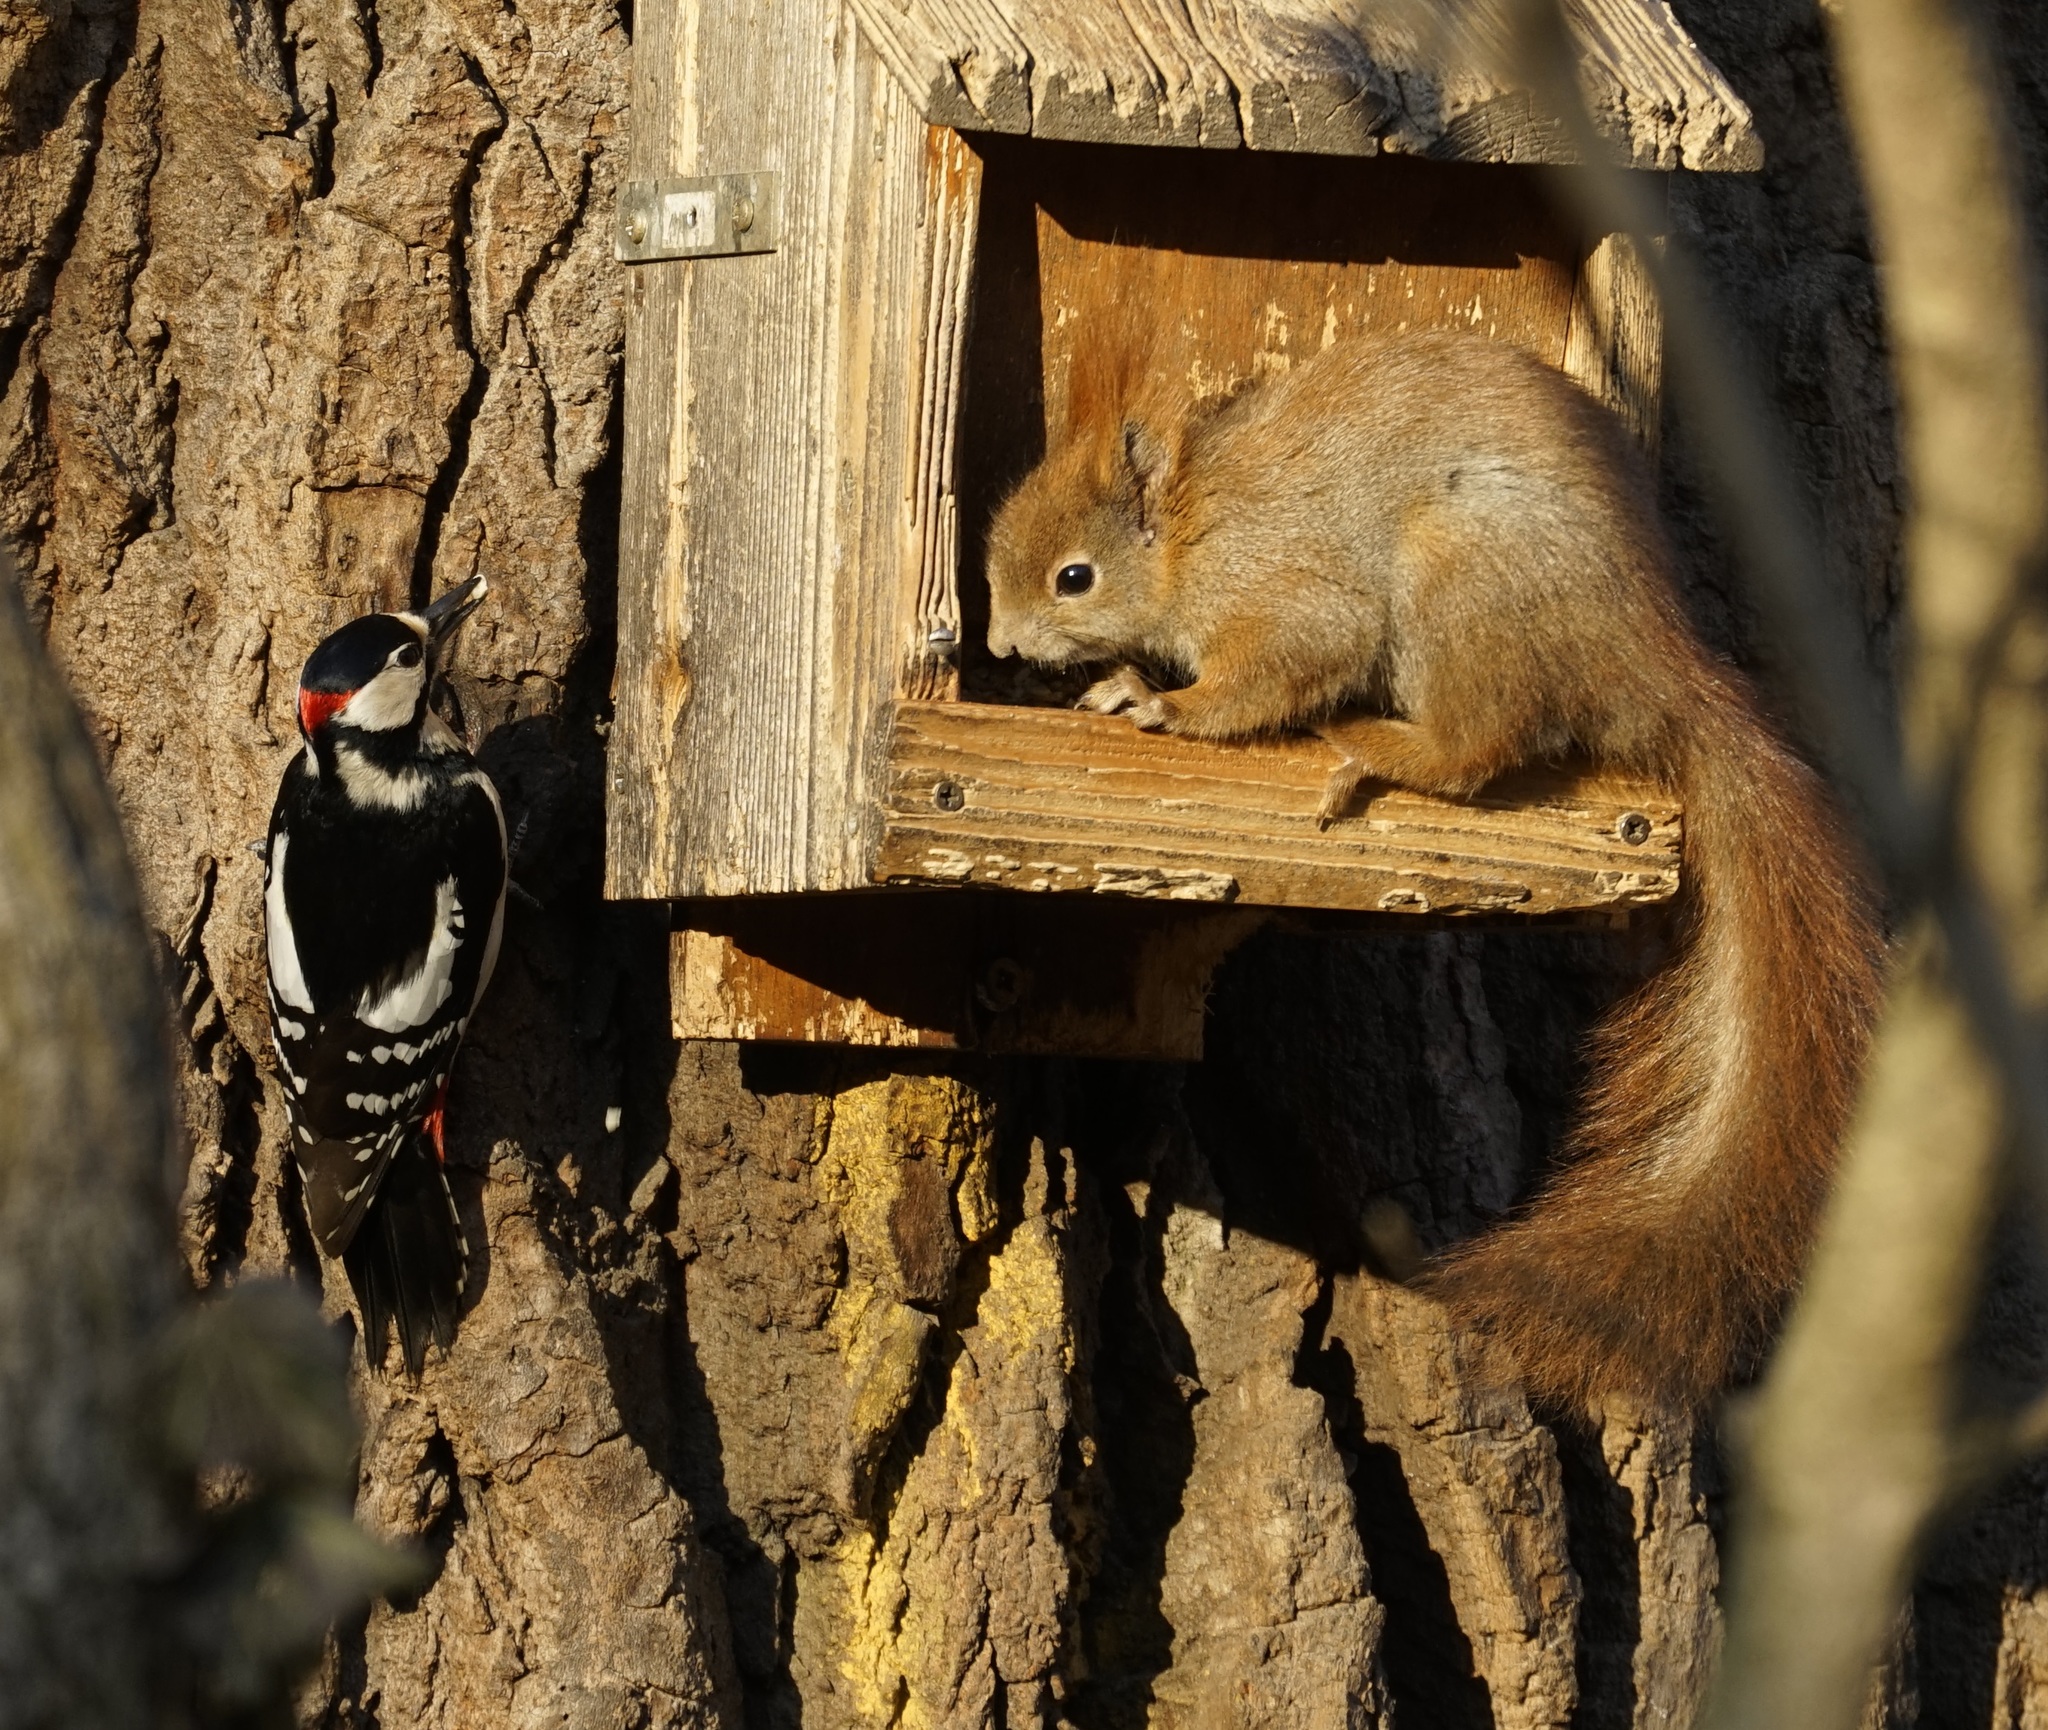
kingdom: Animalia
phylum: Chordata
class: Aves
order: Piciformes
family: Picidae
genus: Dendrocopos
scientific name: Dendrocopos major
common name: Great spotted woodpecker
